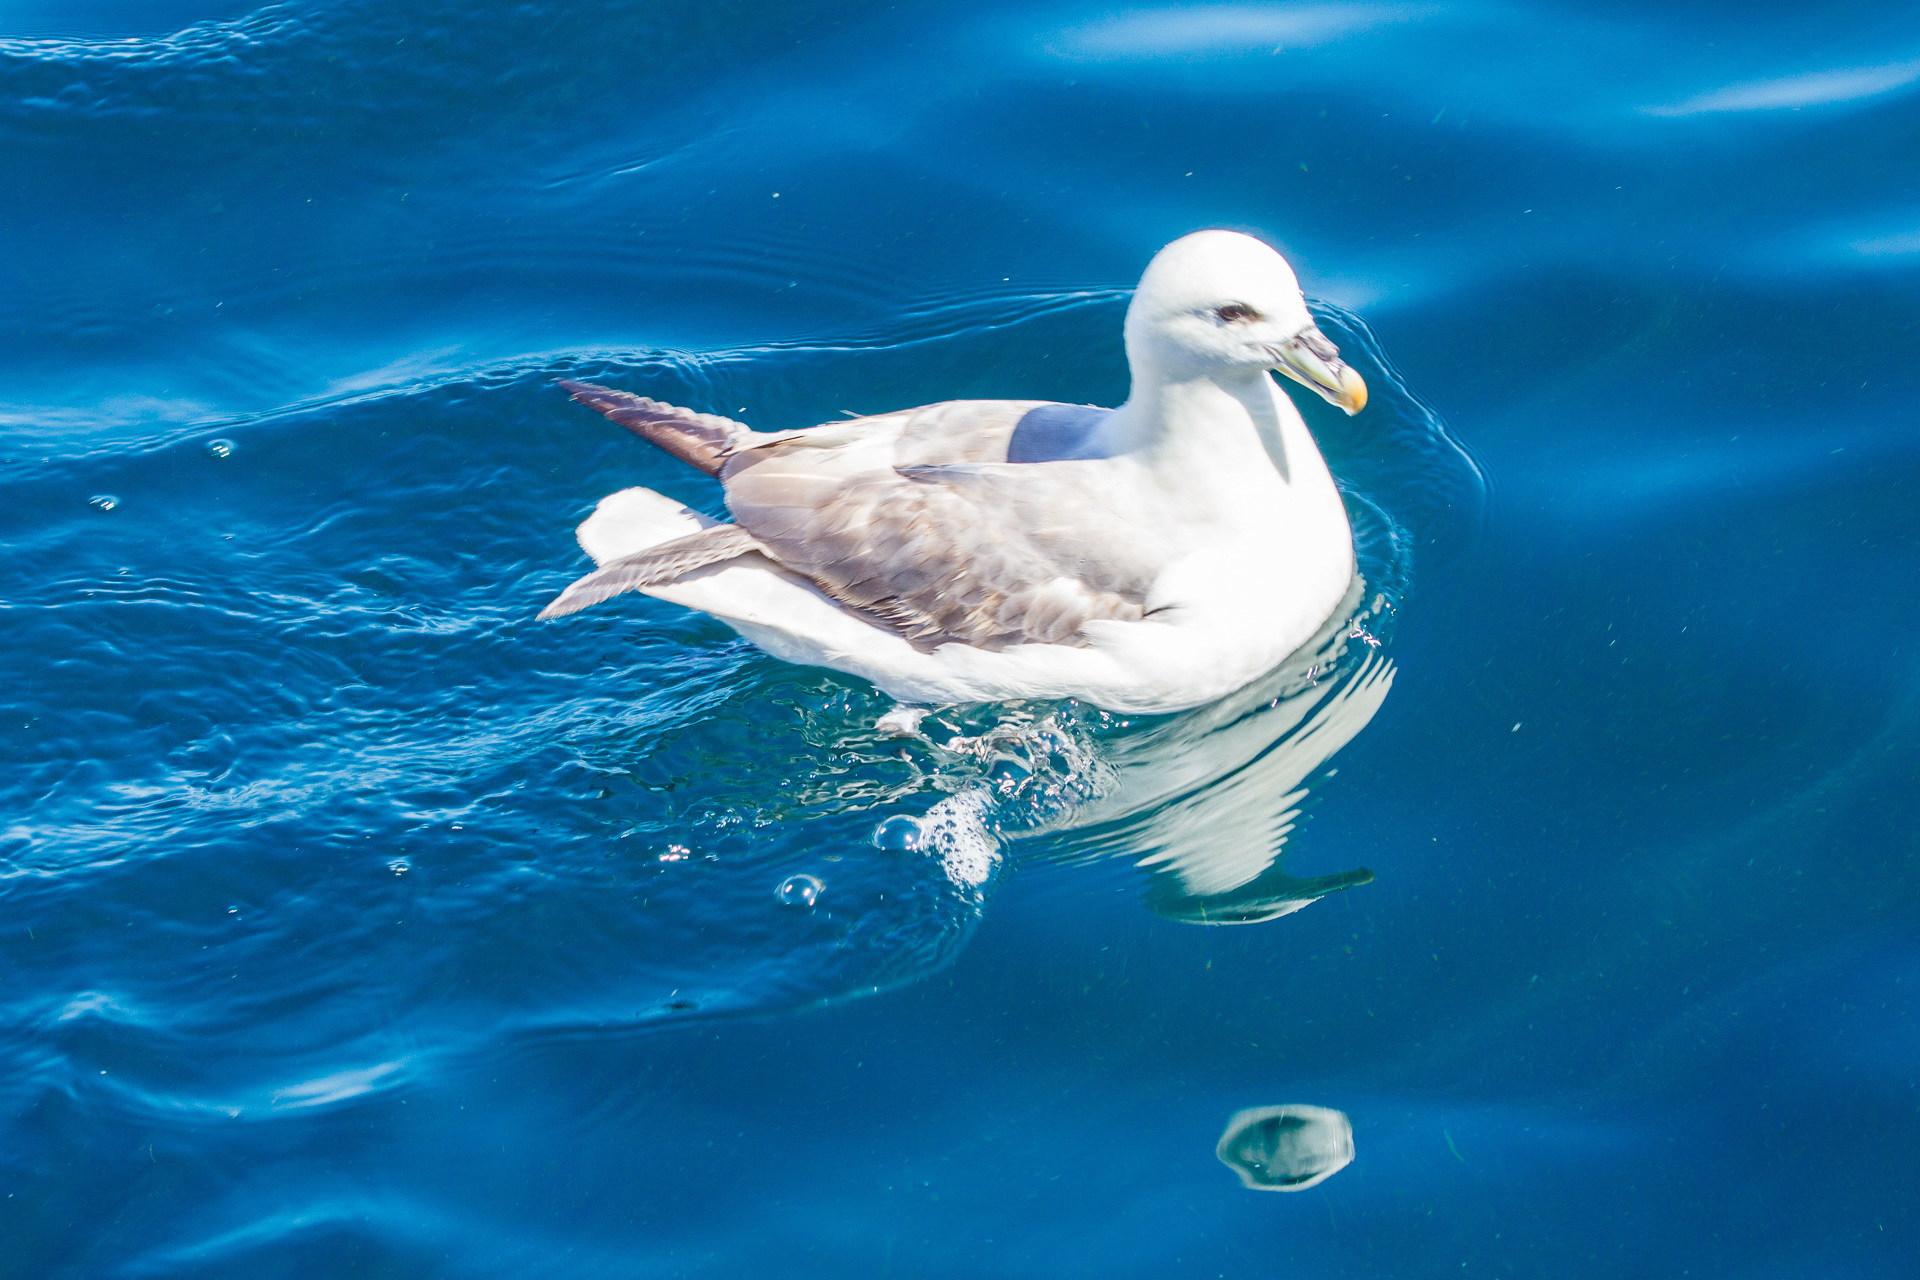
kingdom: Animalia
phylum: Chordata
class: Aves
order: Procellariiformes
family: Procellariidae
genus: Fulmarus
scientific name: Fulmarus glacialis
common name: Northern fulmar
